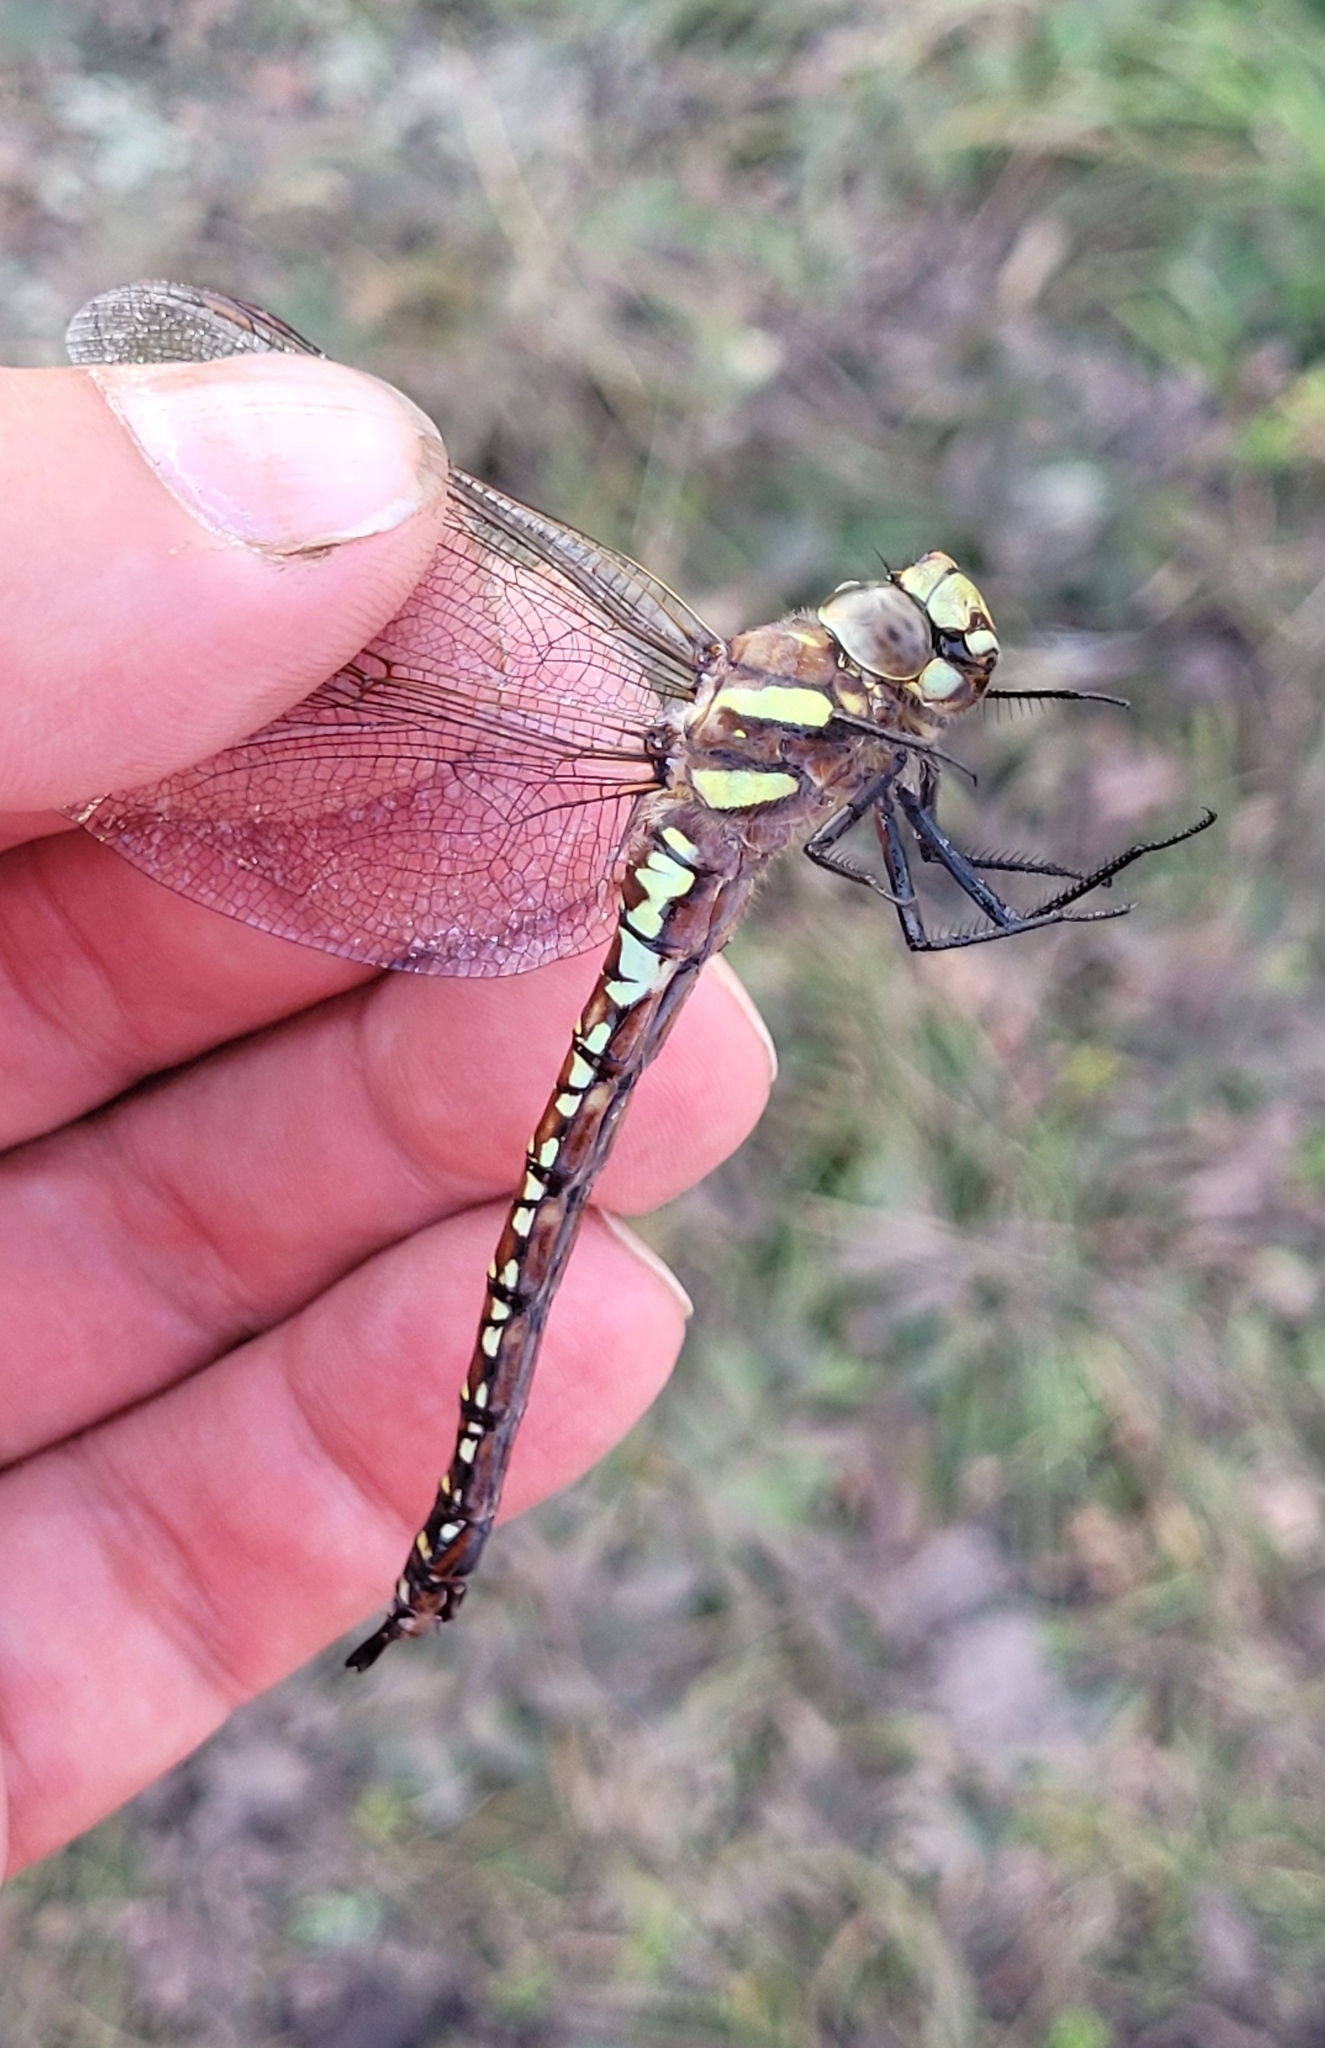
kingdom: Animalia
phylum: Arthropoda
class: Insecta
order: Odonata
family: Aeshnidae
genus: Aeshna
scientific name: Aeshna juncea
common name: Moorland hawker
